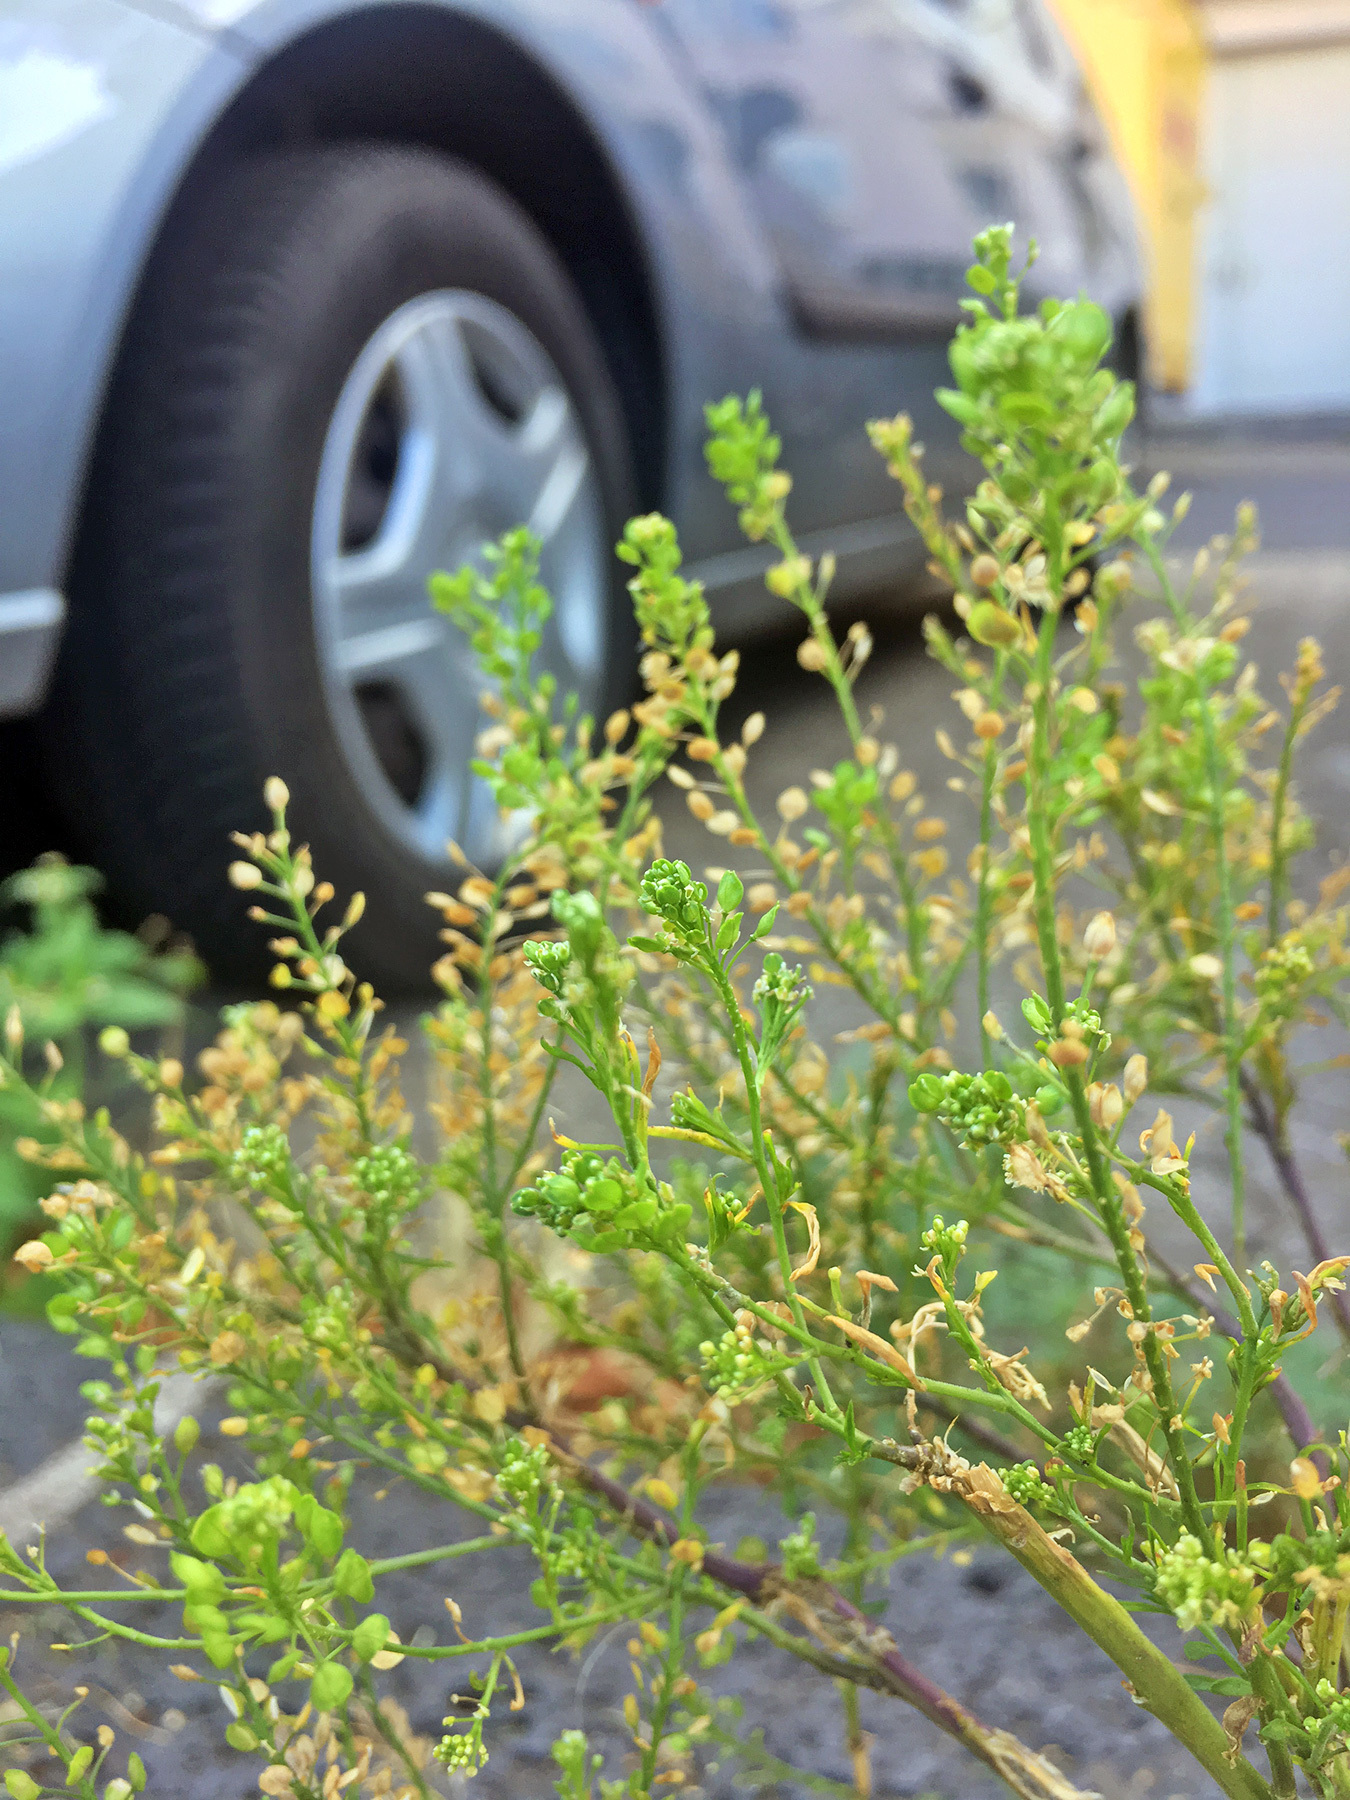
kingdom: Plantae
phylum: Tracheophyta
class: Magnoliopsida
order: Brassicales
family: Brassicaceae
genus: Lepidium
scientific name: Lepidium virginicum
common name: Least pepperwort
